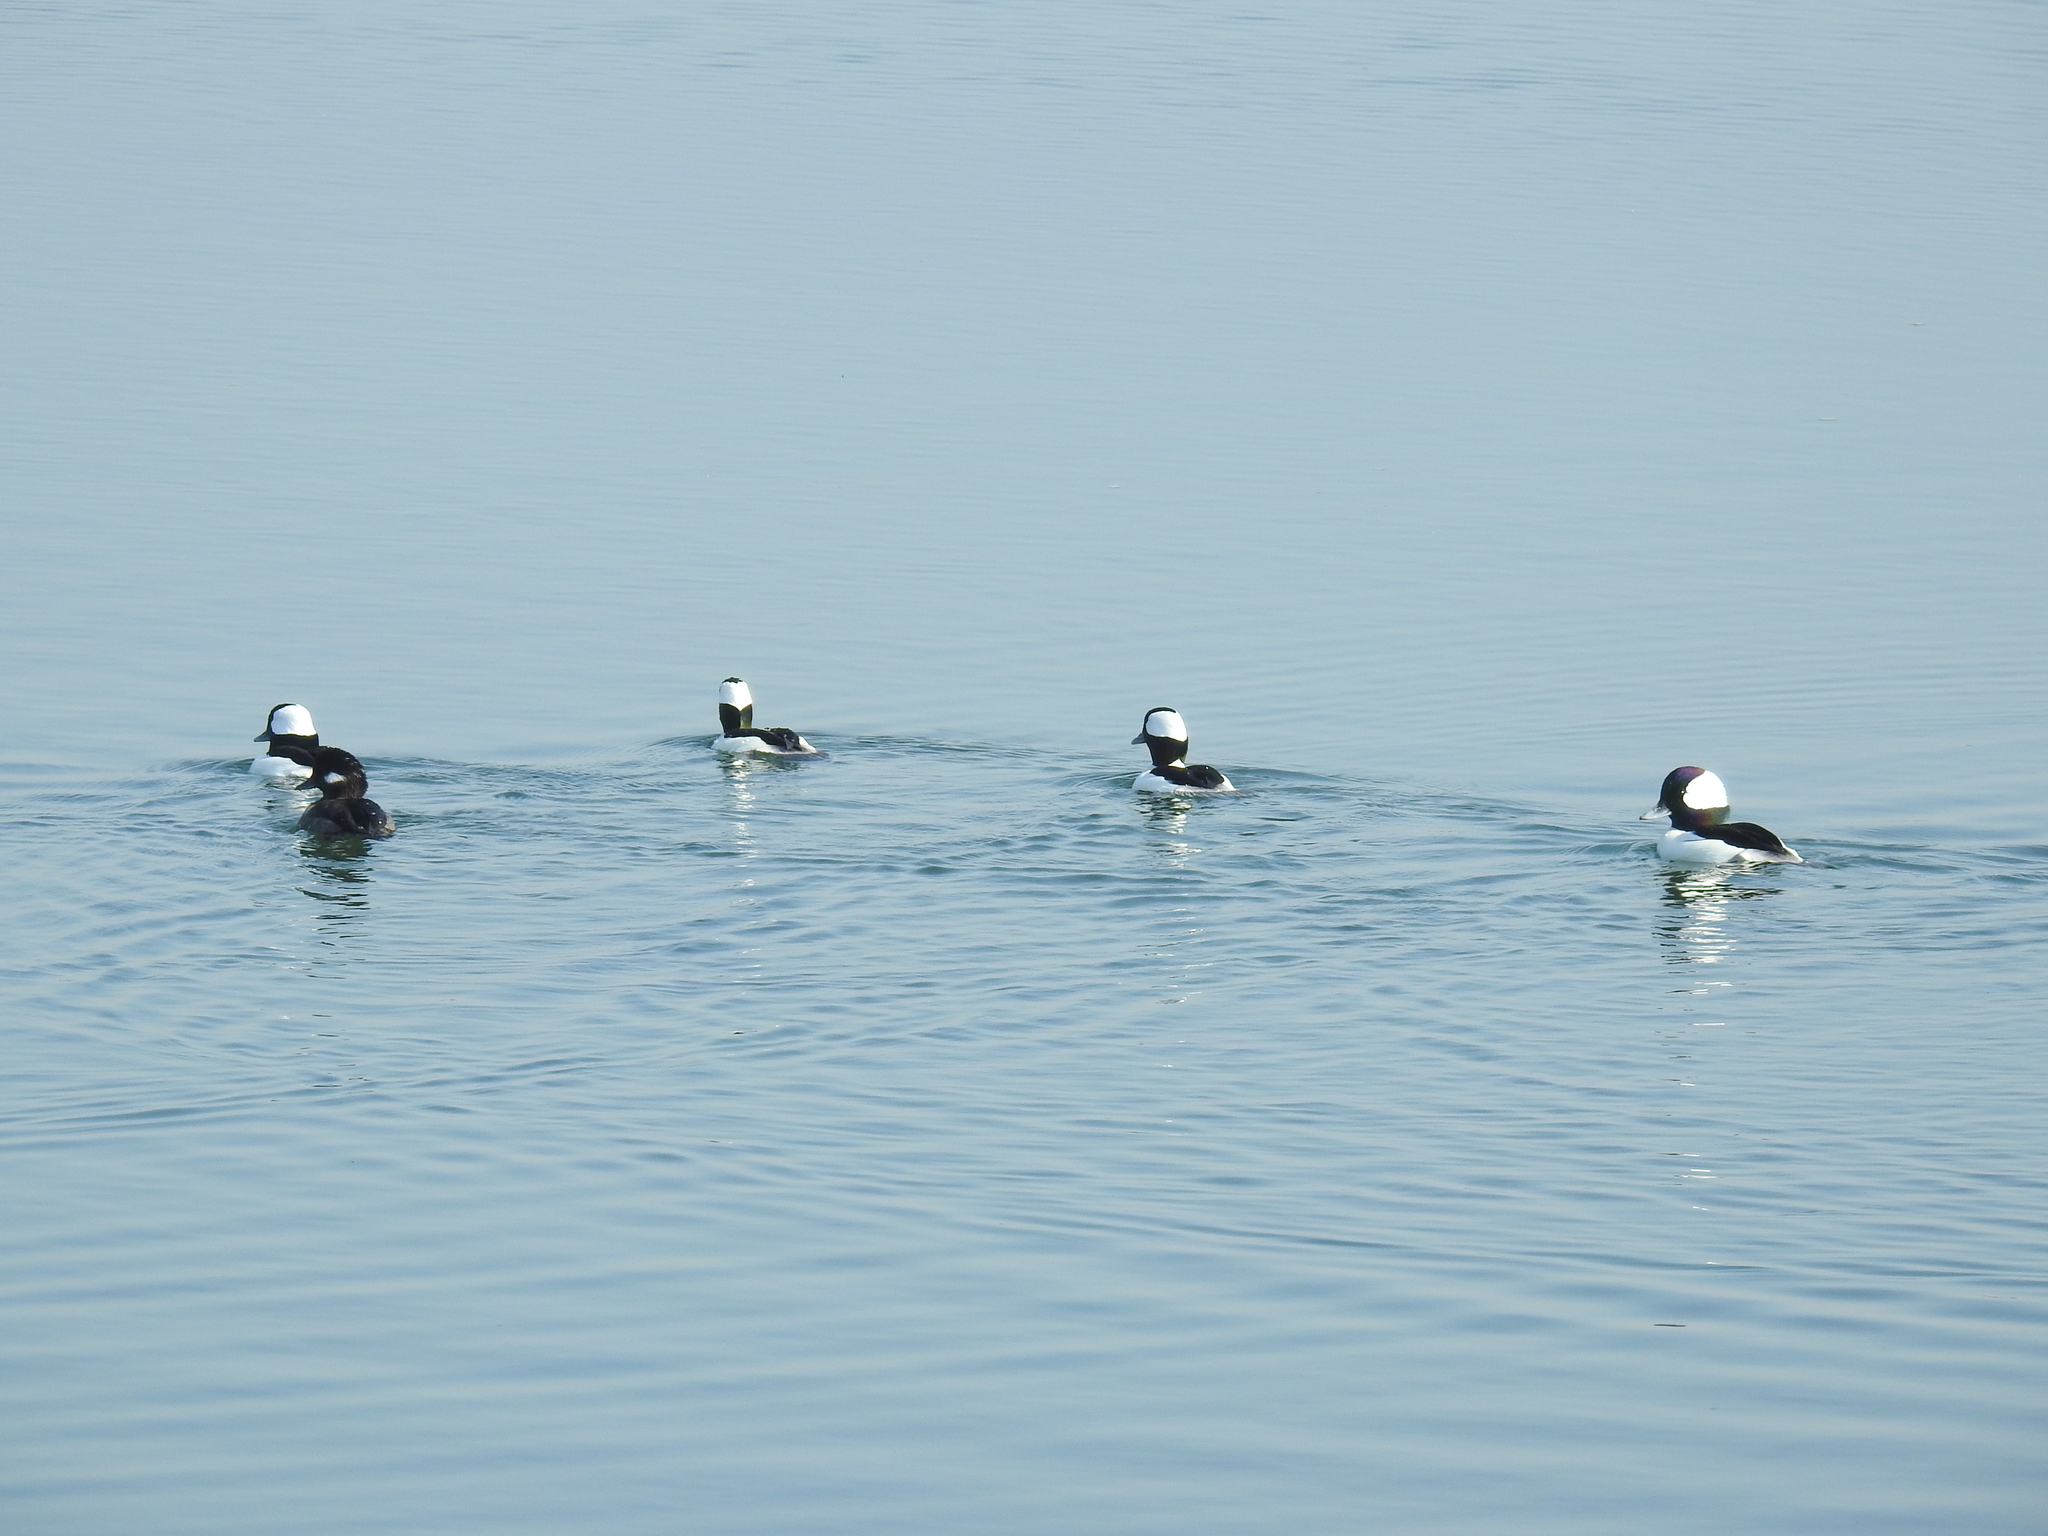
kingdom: Animalia
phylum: Chordata
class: Aves
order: Anseriformes
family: Anatidae
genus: Bucephala
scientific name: Bucephala albeola
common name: Bufflehead
